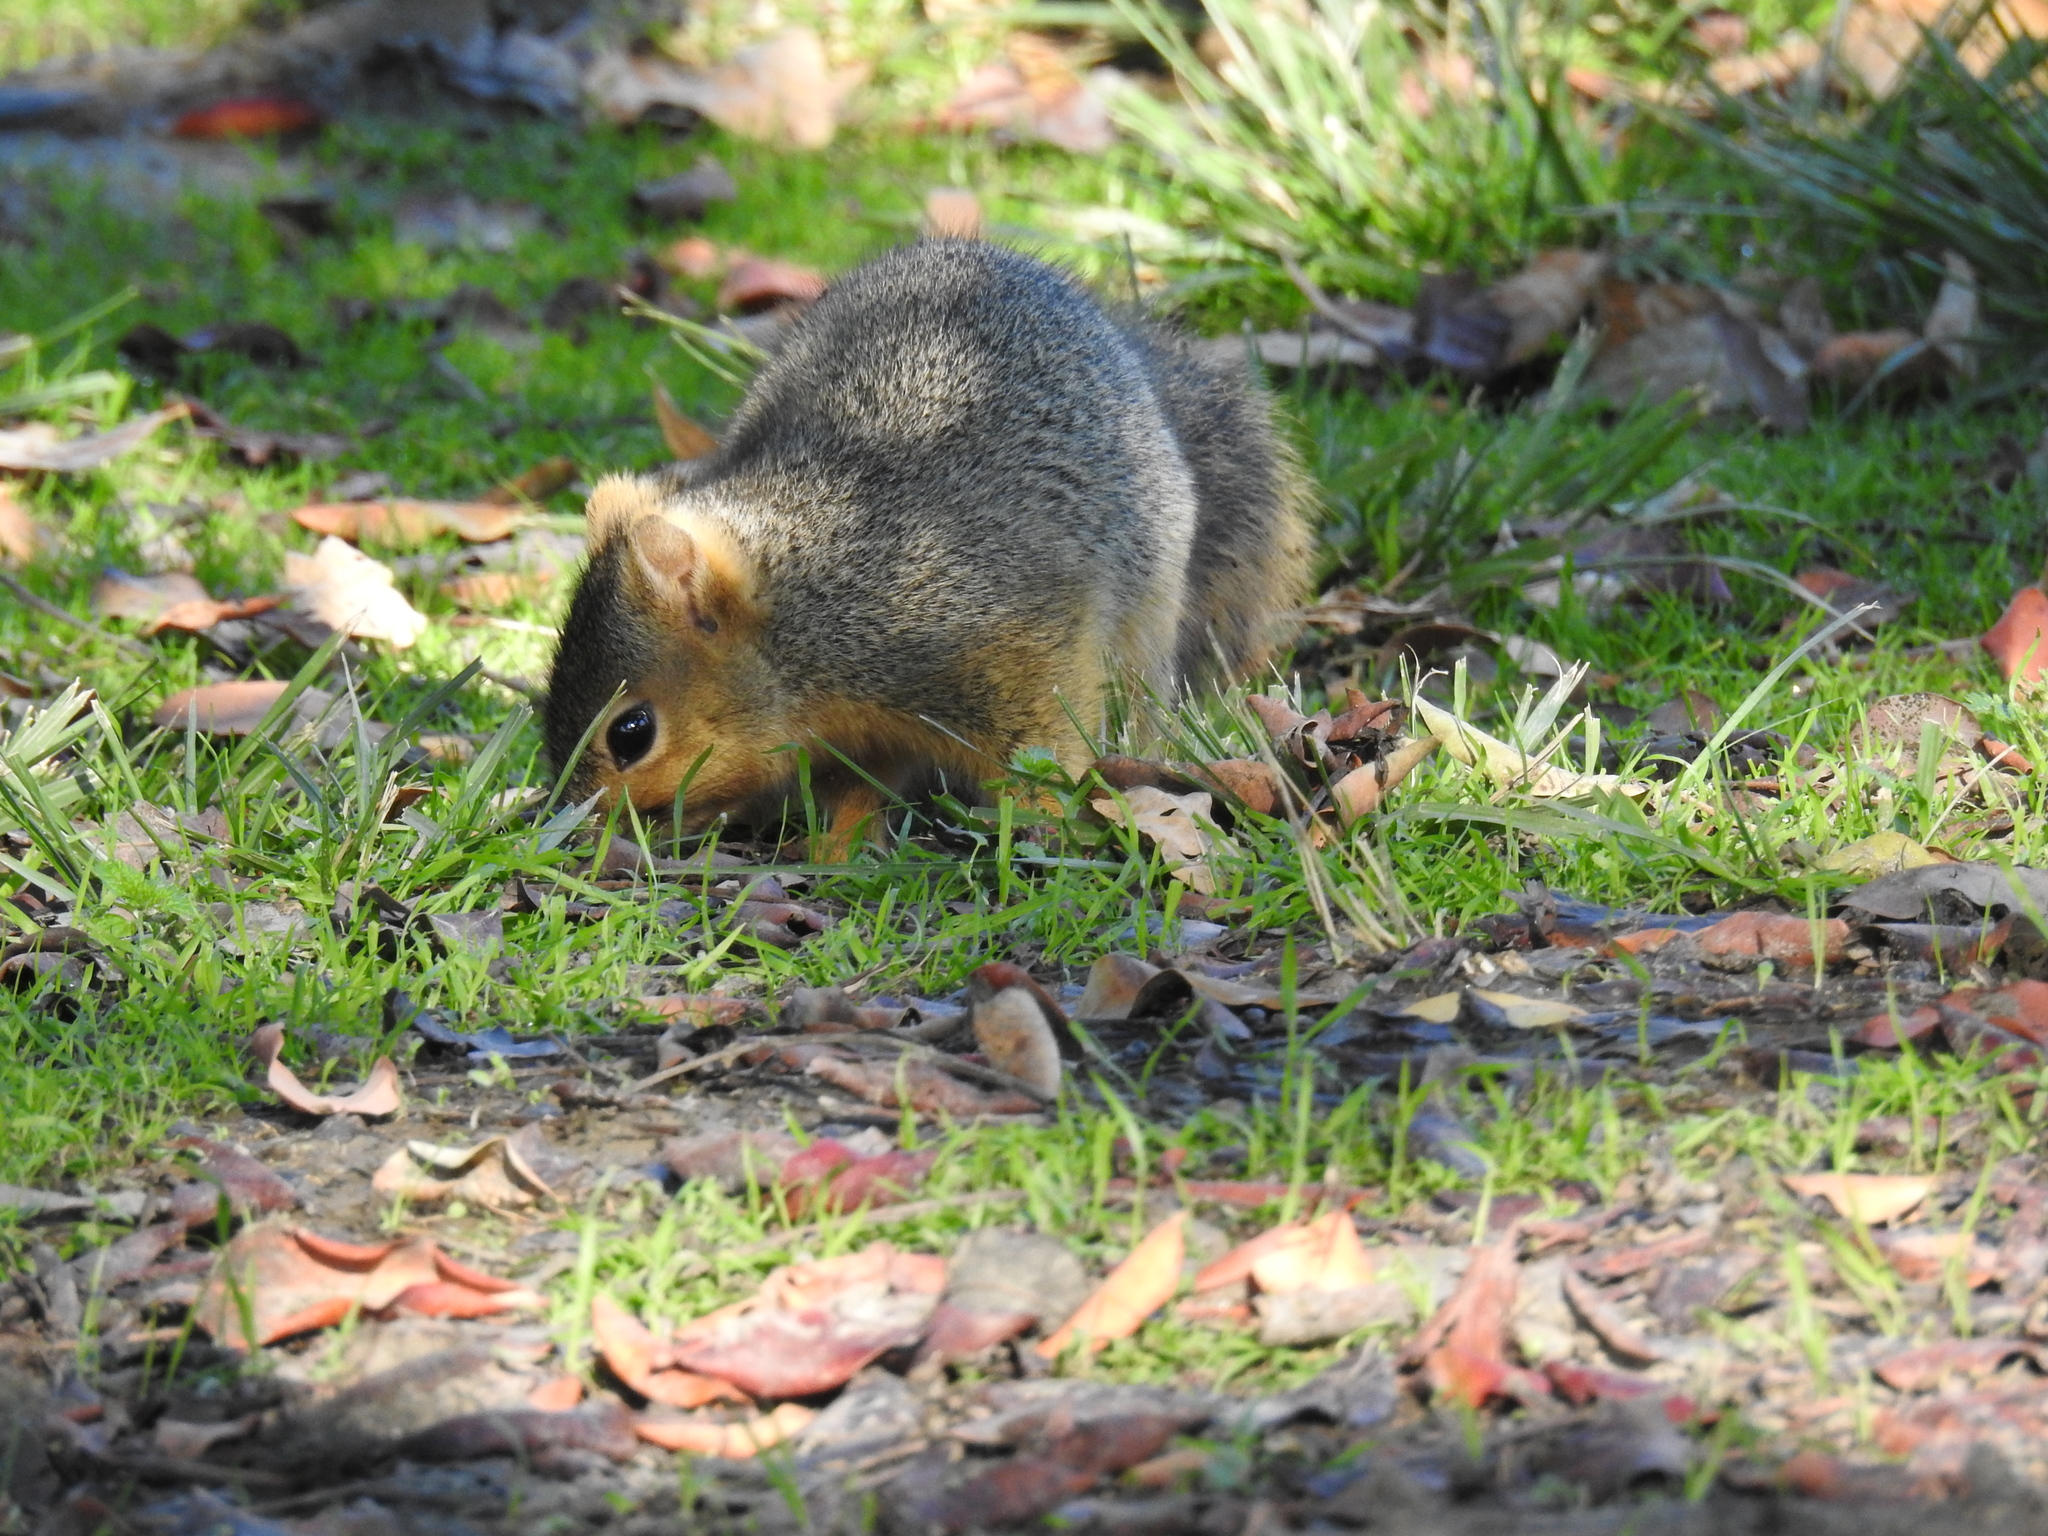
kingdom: Animalia
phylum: Chordata
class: Mammalia
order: Rodentia
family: Sciuridae
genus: Sciurus
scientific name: Sciurus niger
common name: Fox squirrel
